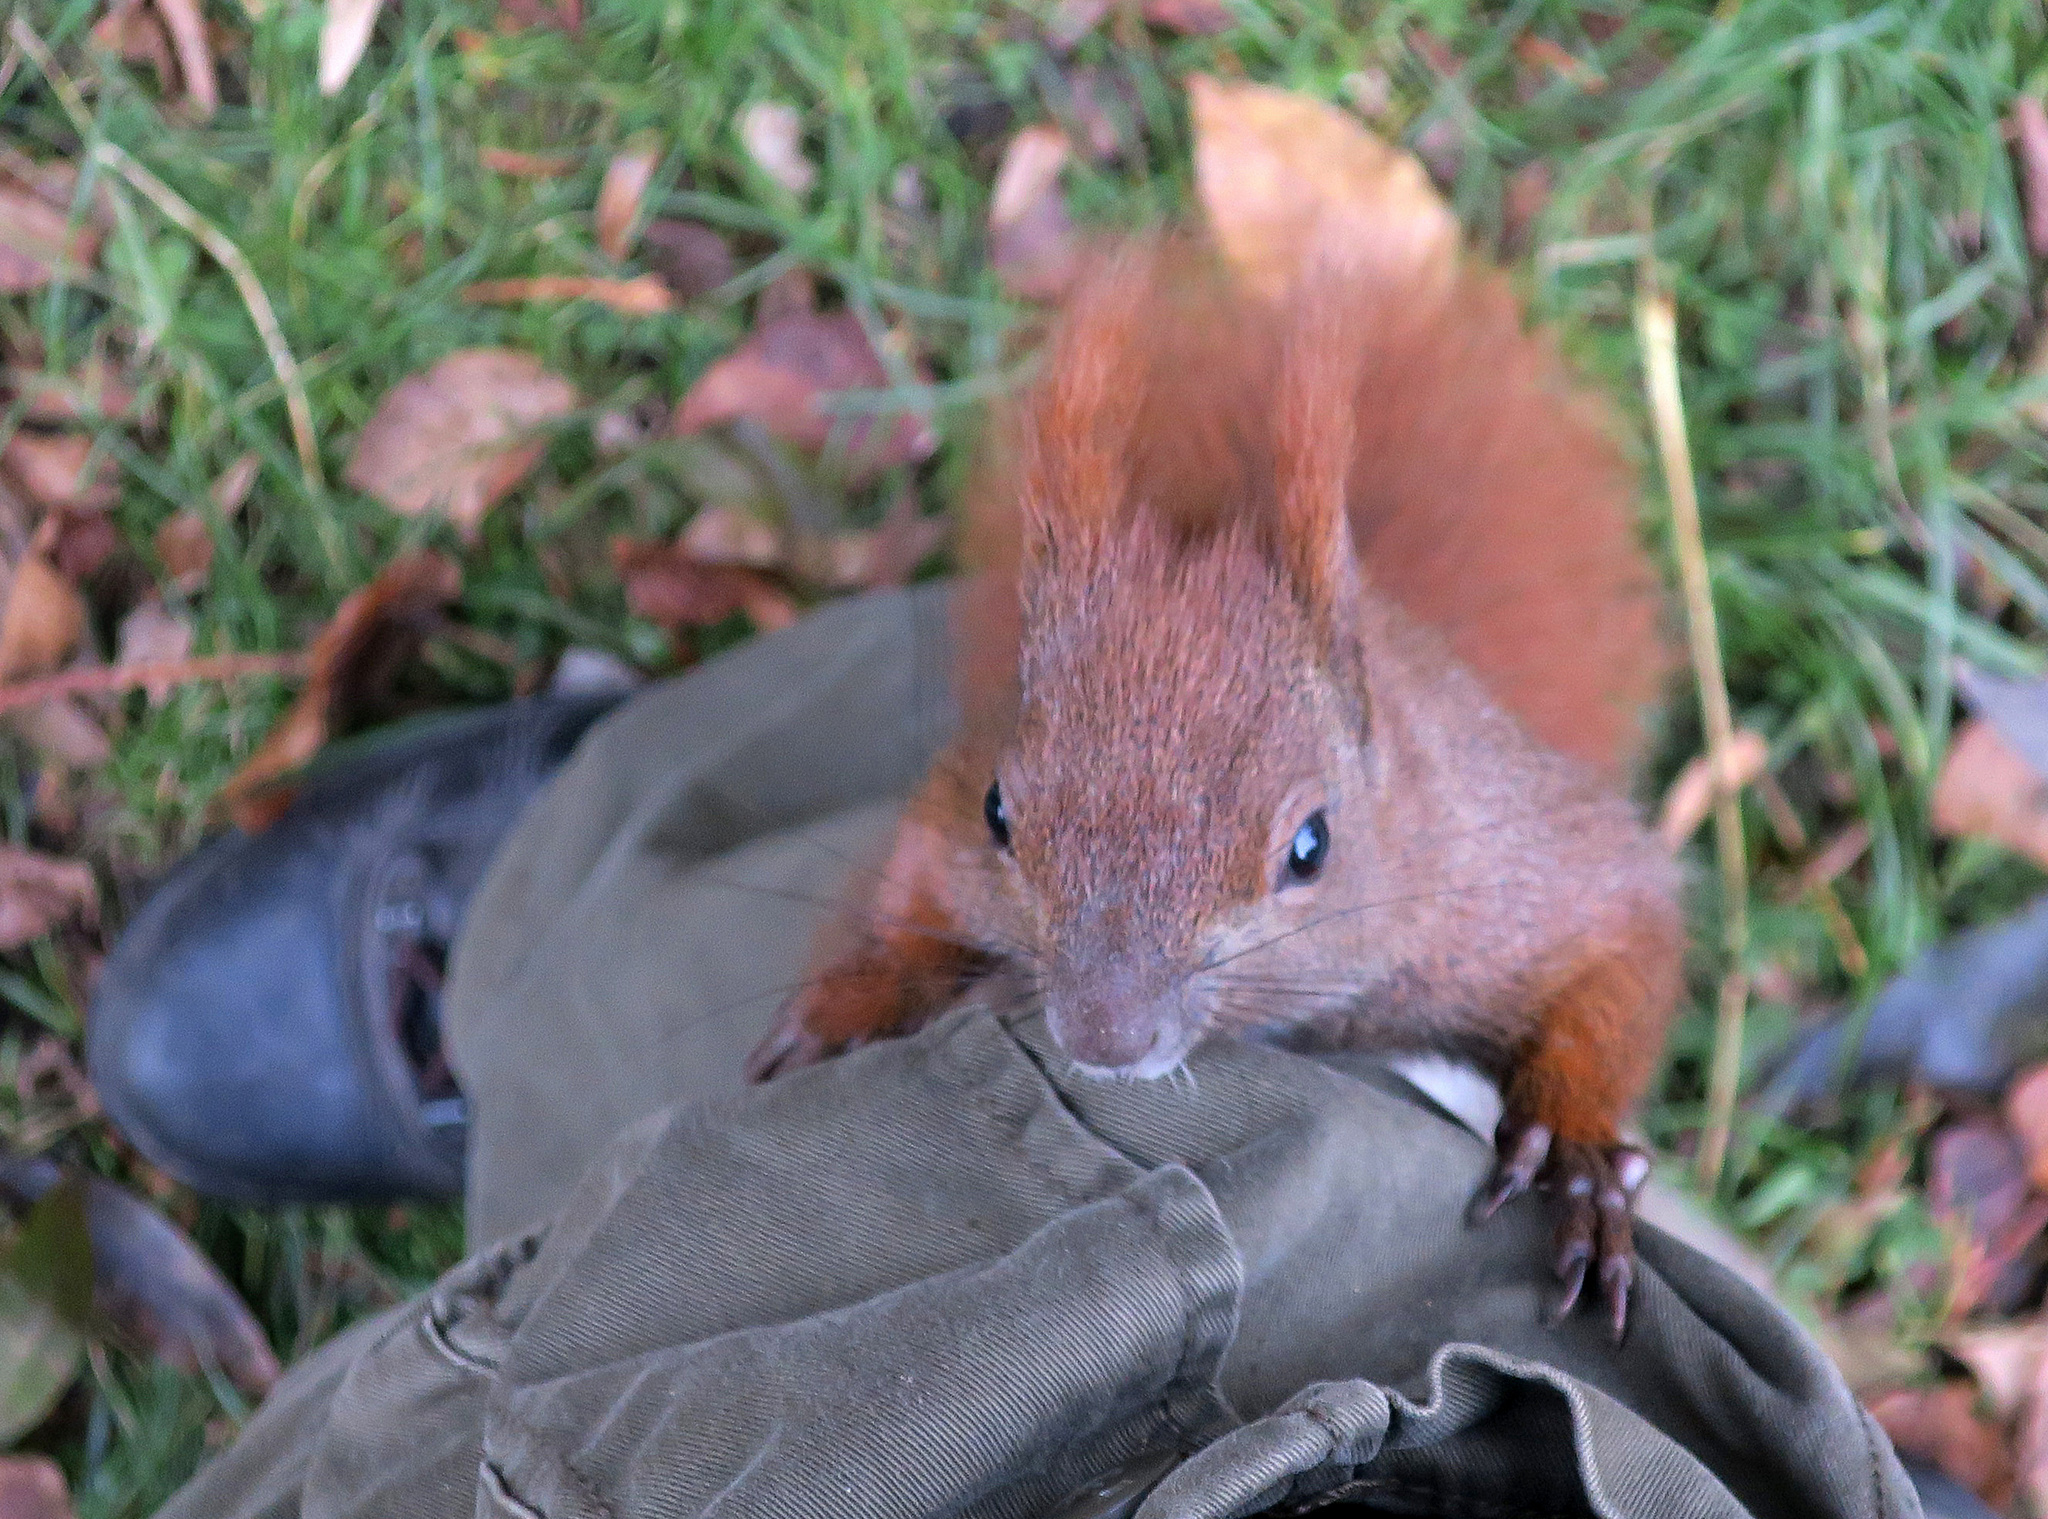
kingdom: Animalia
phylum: Chordata
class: Mammalia
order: Rodentia
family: Sciuridae
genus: Sciurus
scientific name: Sciurus vulgaris
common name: Eurasian red squirrel
